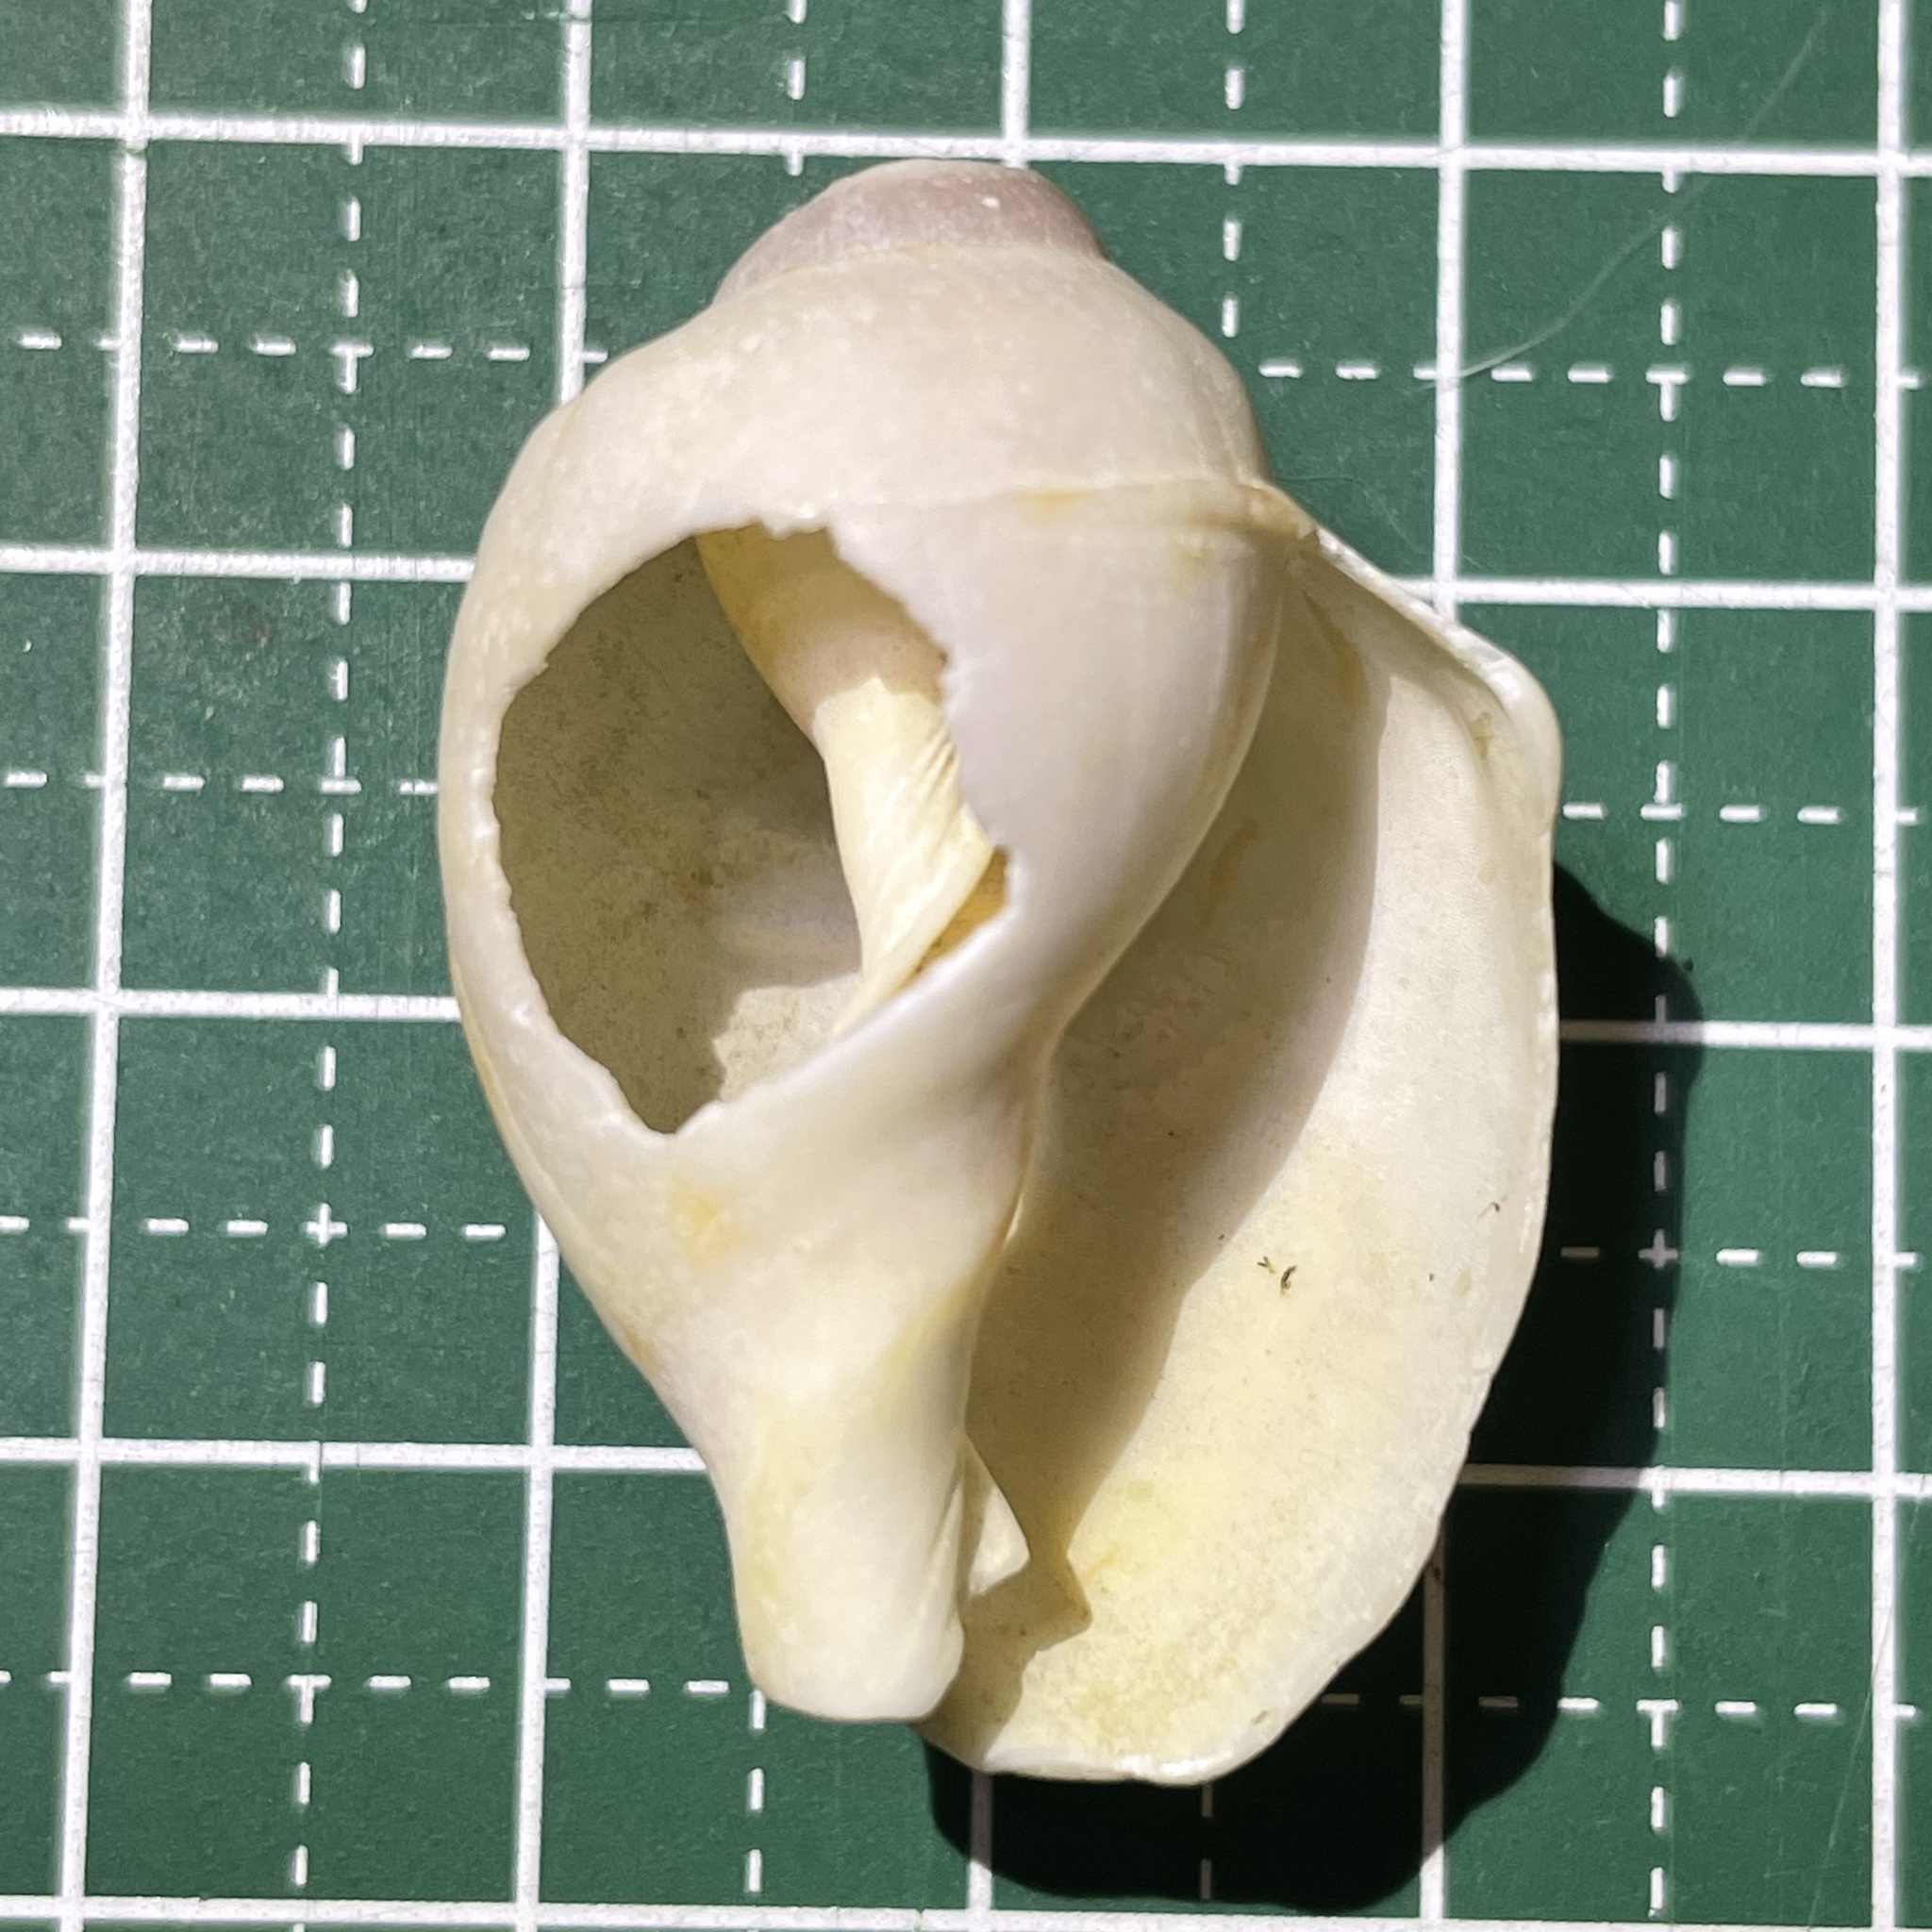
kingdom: Animalia
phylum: Mollusca
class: Gastropoda
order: Littorinimorpha
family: Cassidae
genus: Casmaria
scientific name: Casmaria erinaceus
